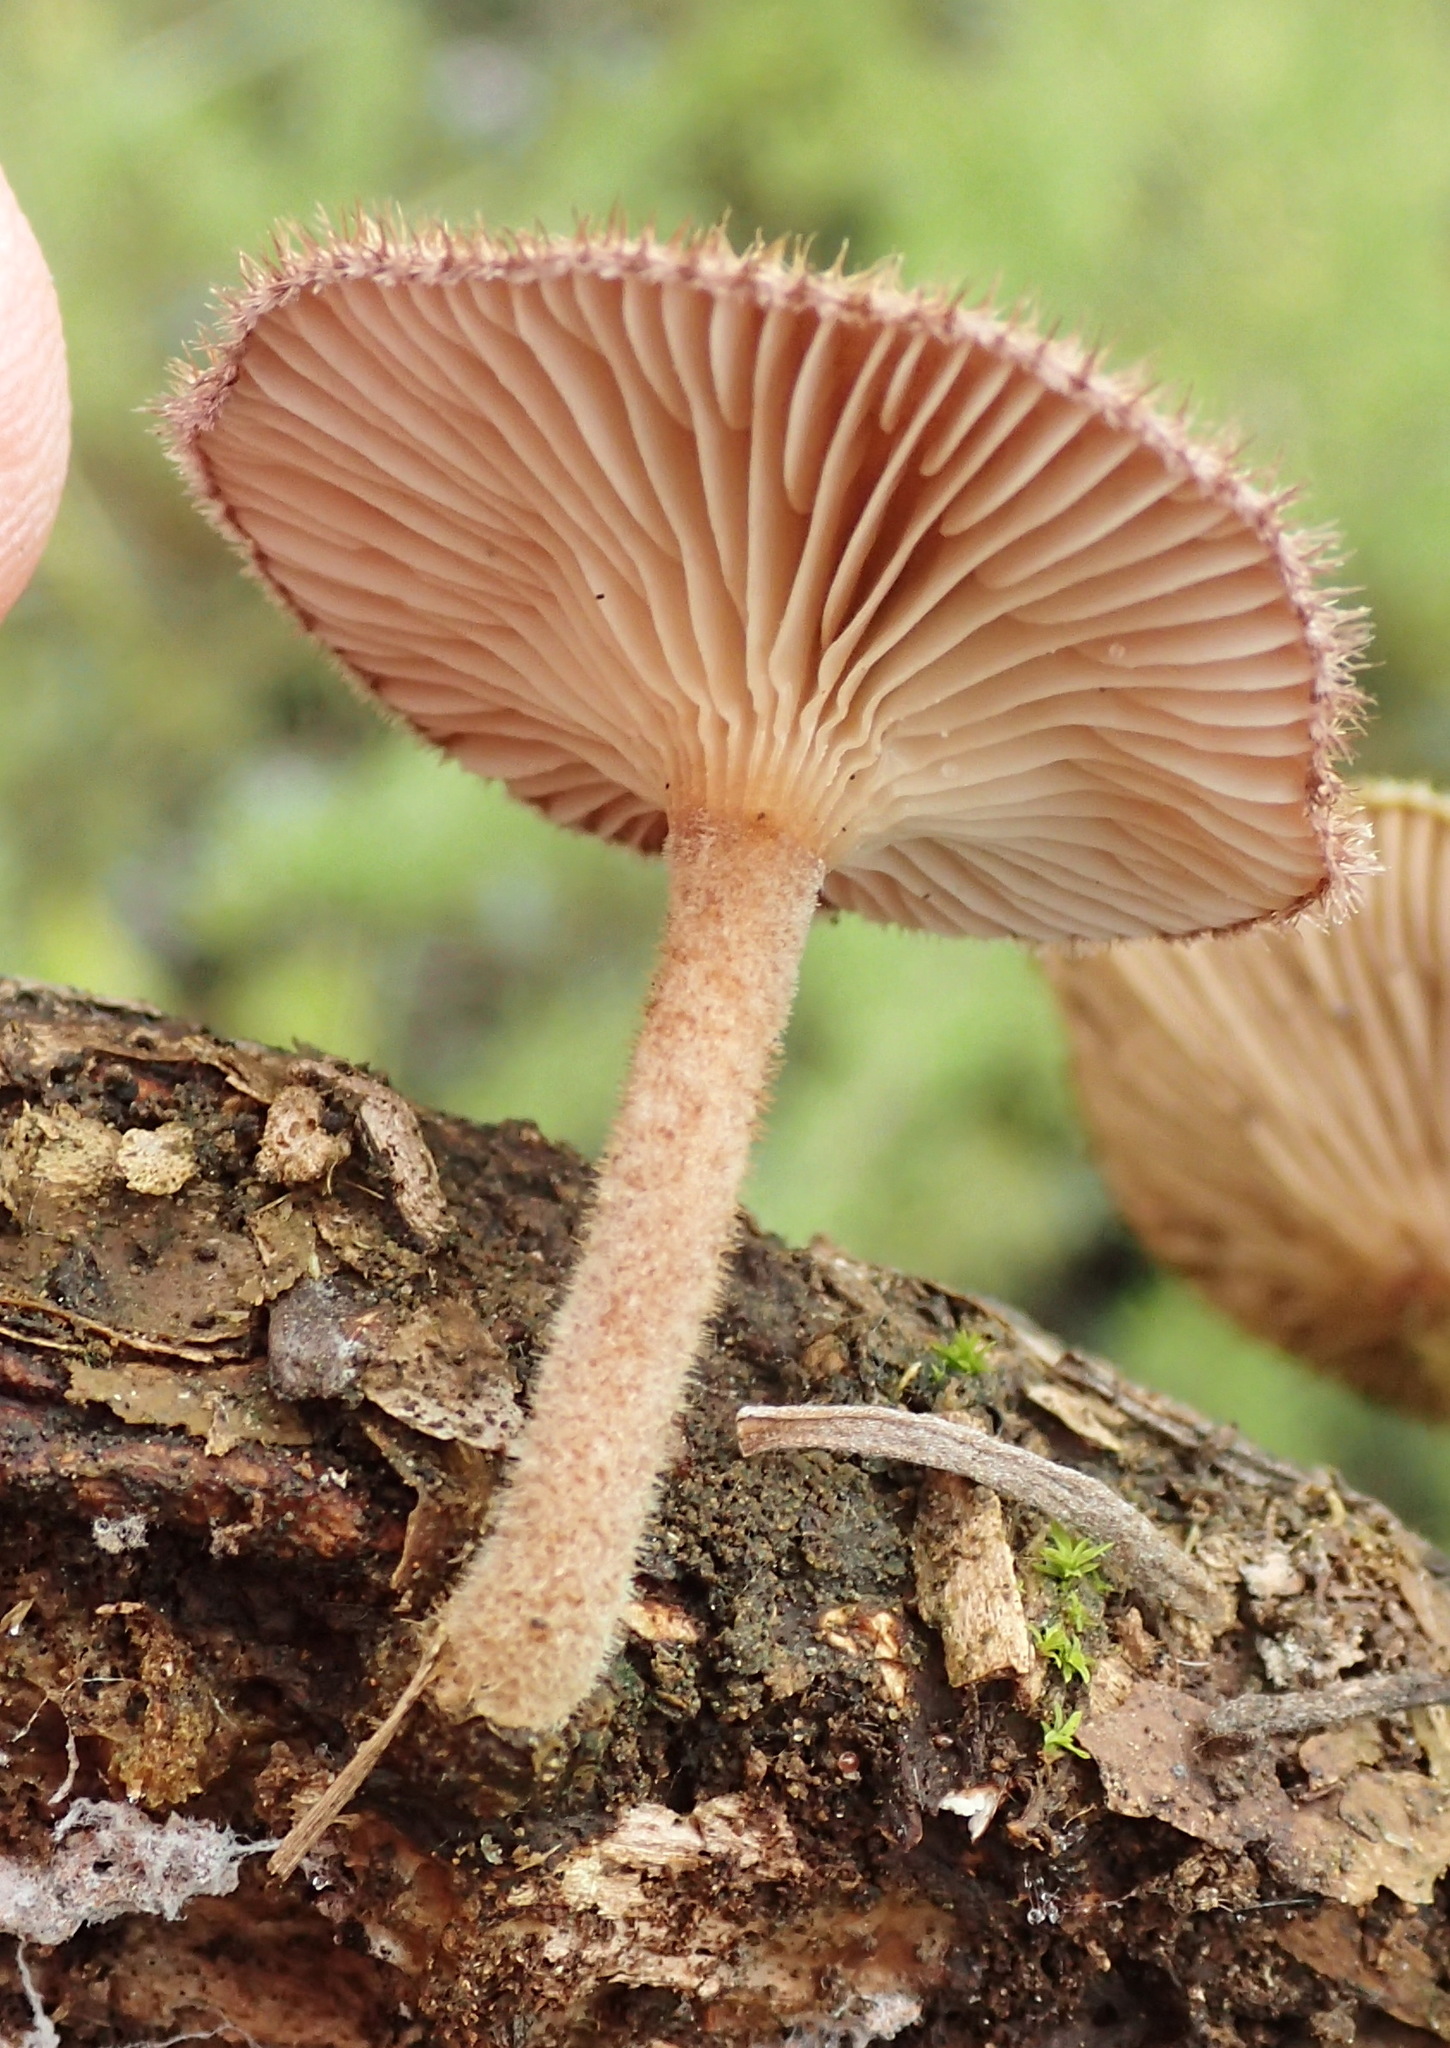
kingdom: Fungi
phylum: Basidiomycota
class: Agaricomycetes
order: Polyporales
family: Polyporaceae
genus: Lentinus
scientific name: Lentinus stuppeus
